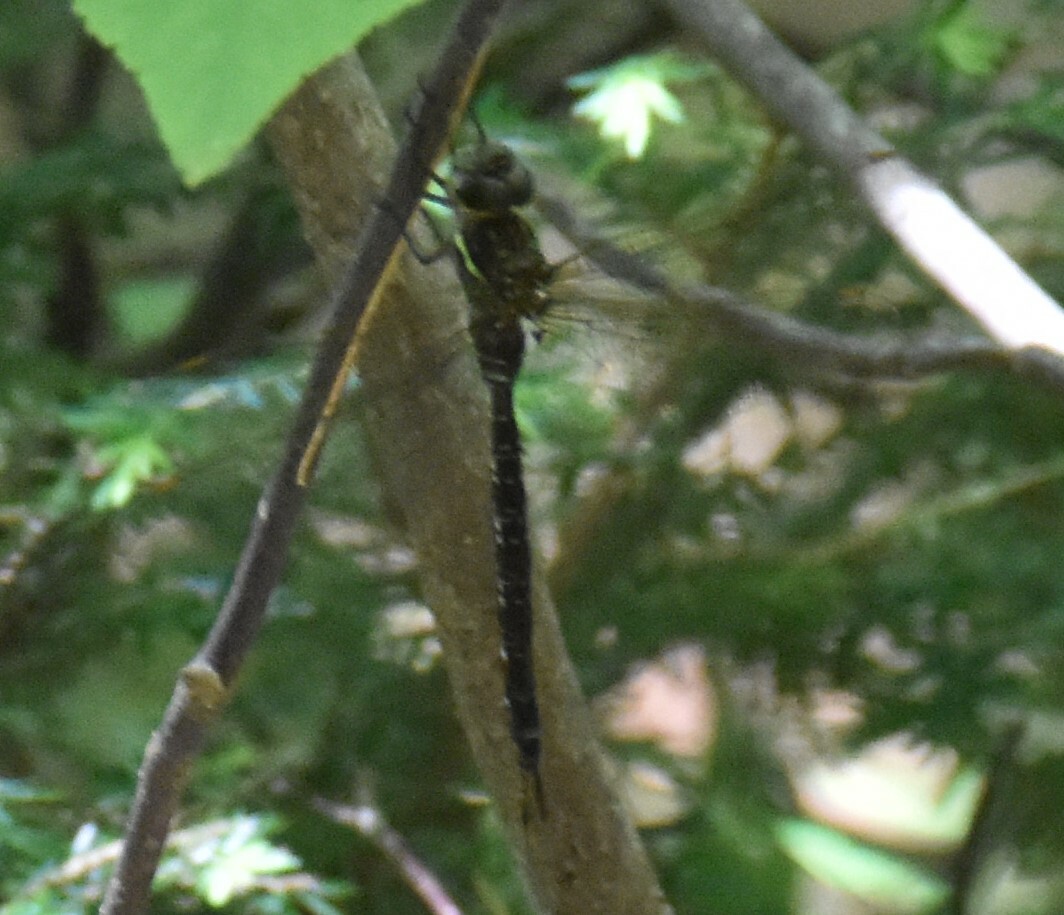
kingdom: Animalia
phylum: Arthropoda
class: Insecta
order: Odonata
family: Aeshnidae
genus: Aeshna
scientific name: Aeshna umbrosa
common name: Shadow darner
